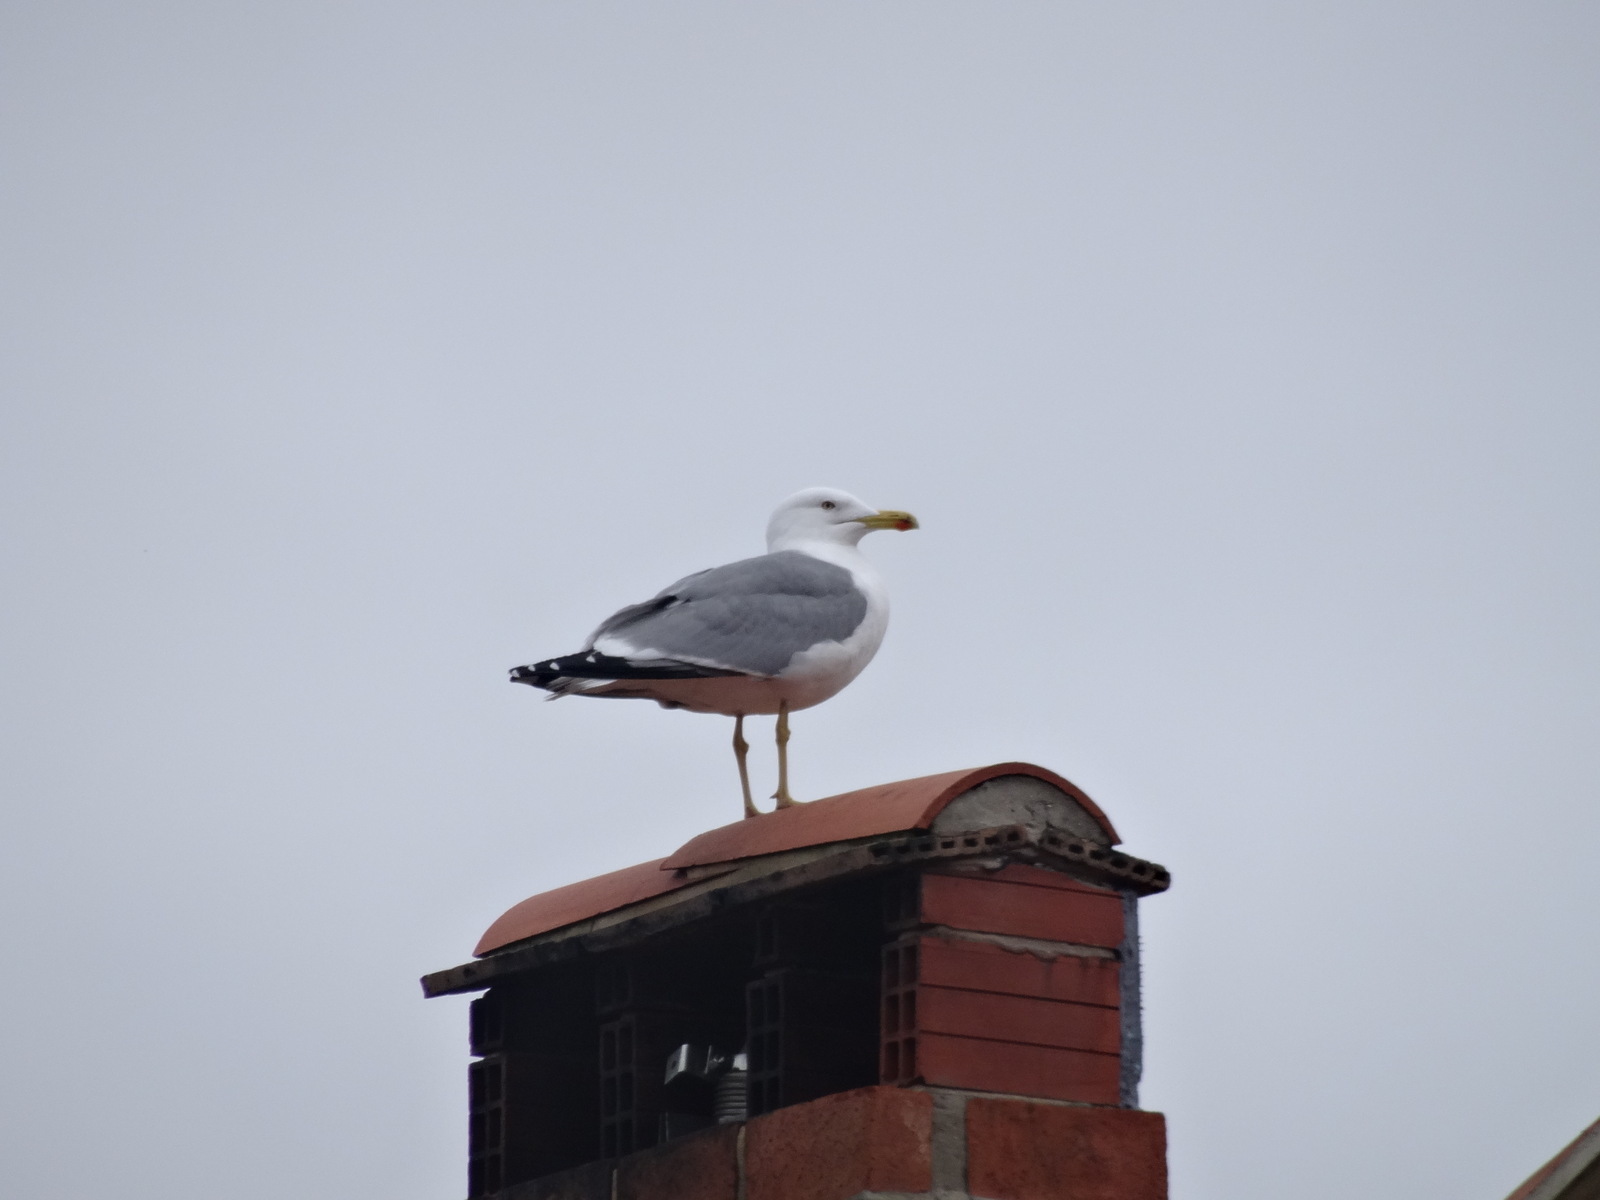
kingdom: Animalia
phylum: Chordata
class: Aves
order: Charadriiformes
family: Laridae
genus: Larus
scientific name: Larus michahellis
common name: Yellow-legged gull
